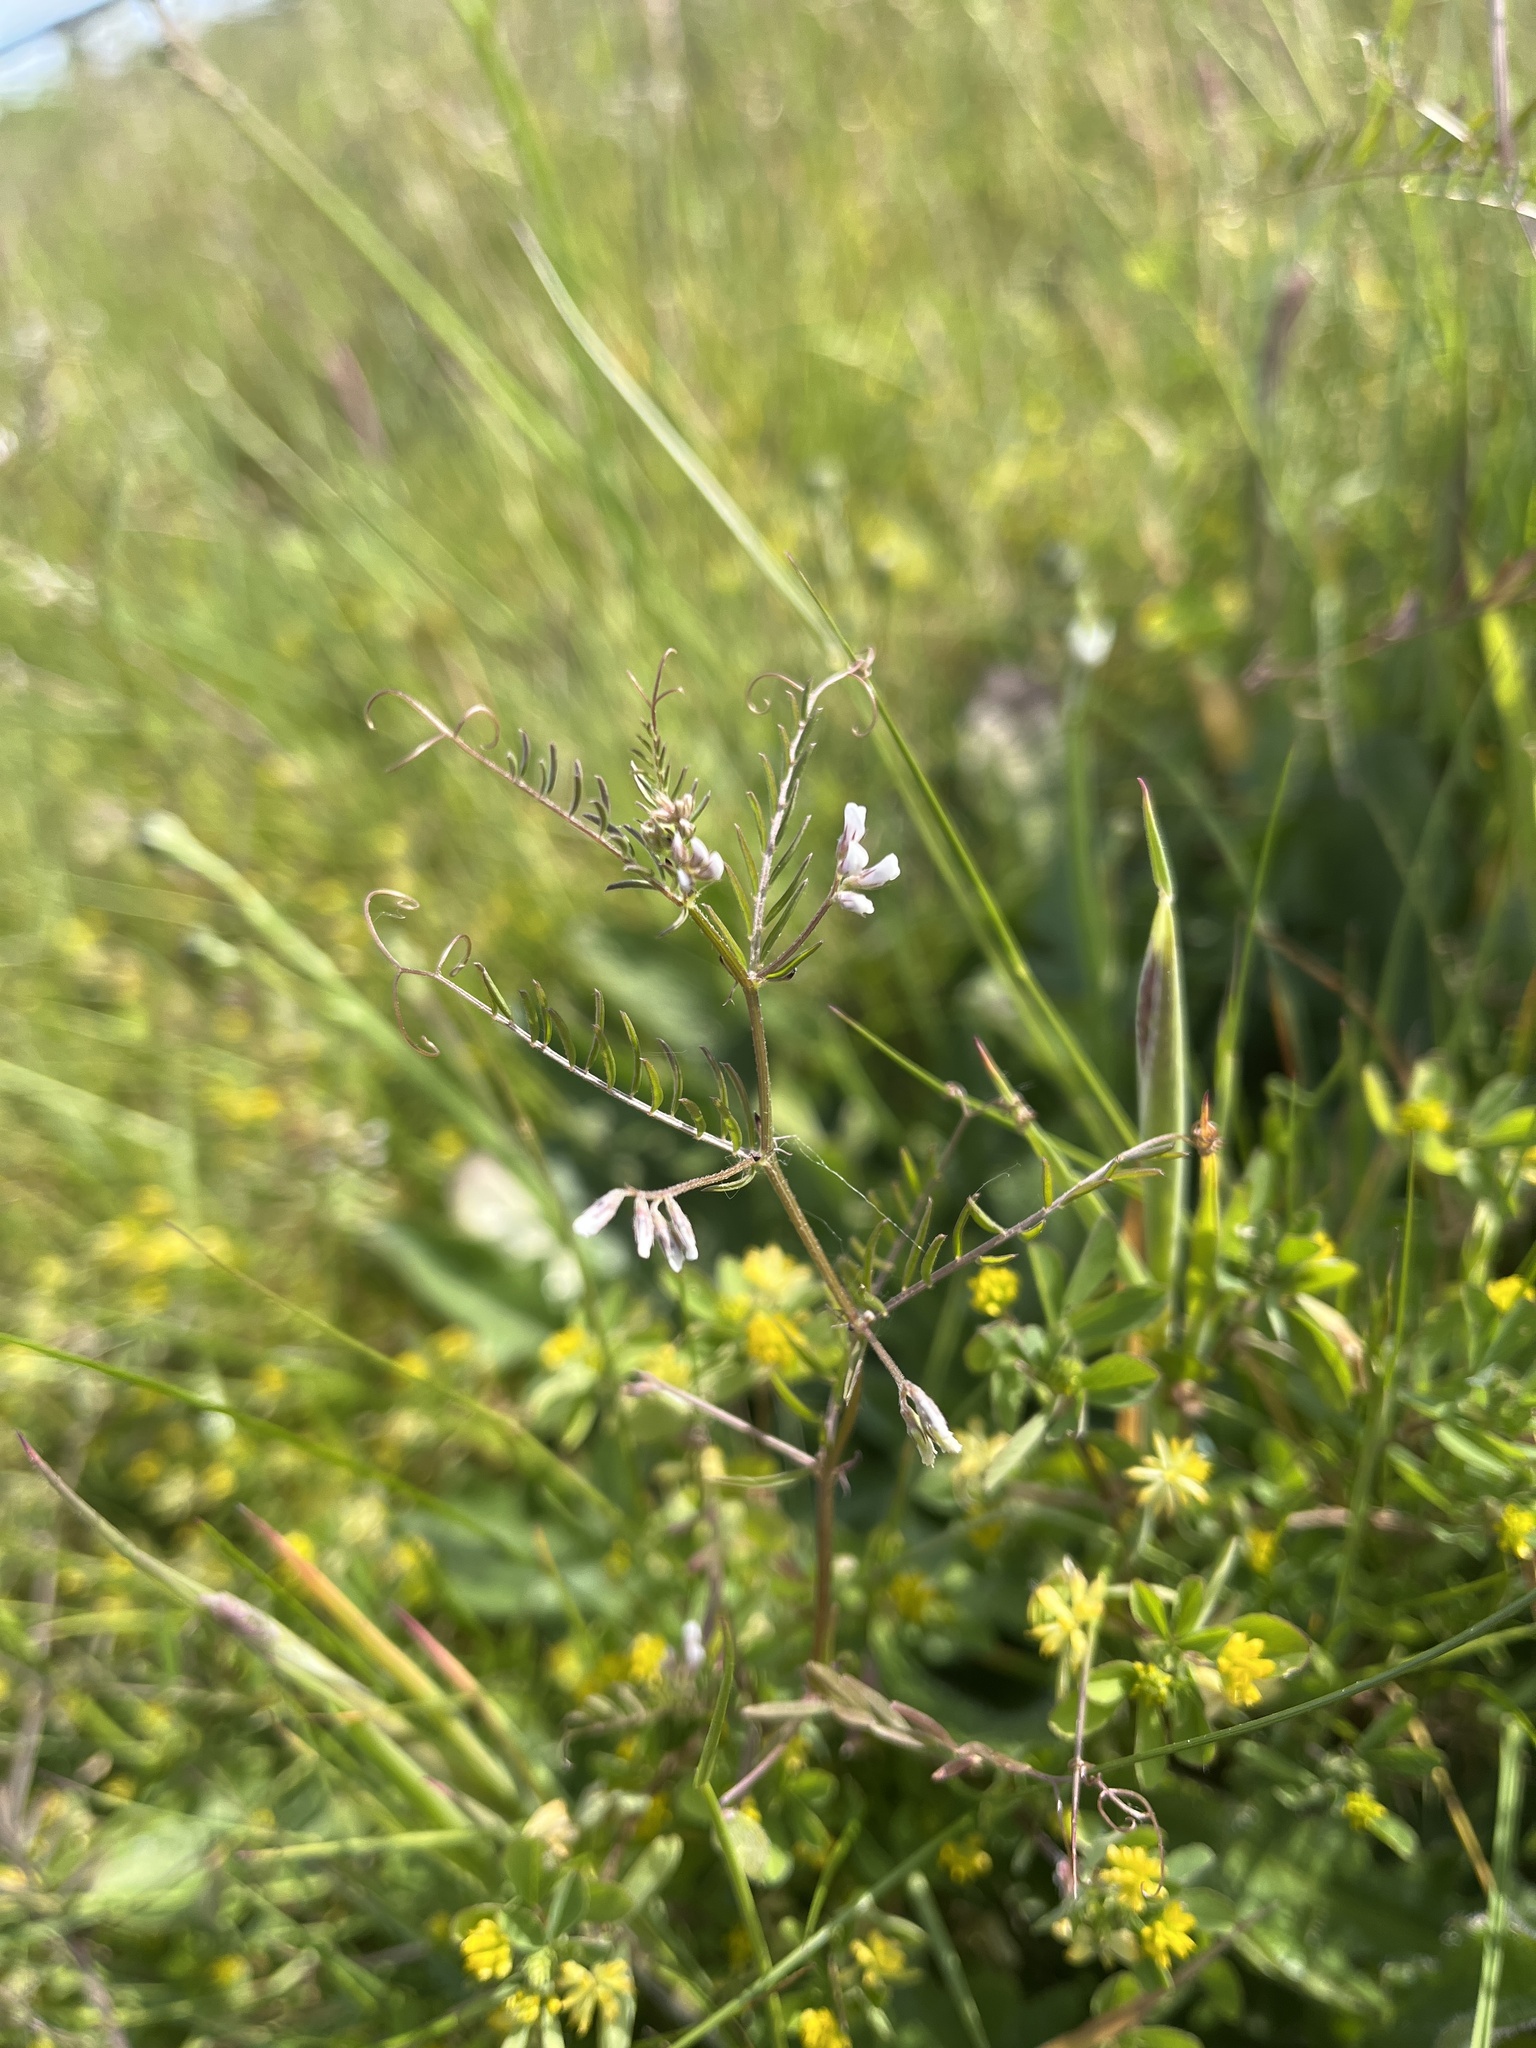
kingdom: Plantae
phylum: Tracheophyta
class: Magnoliopsida
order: Fabales
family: Fabaceae
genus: Vicia
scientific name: Vicia hirsuta
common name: Tiny vetch
